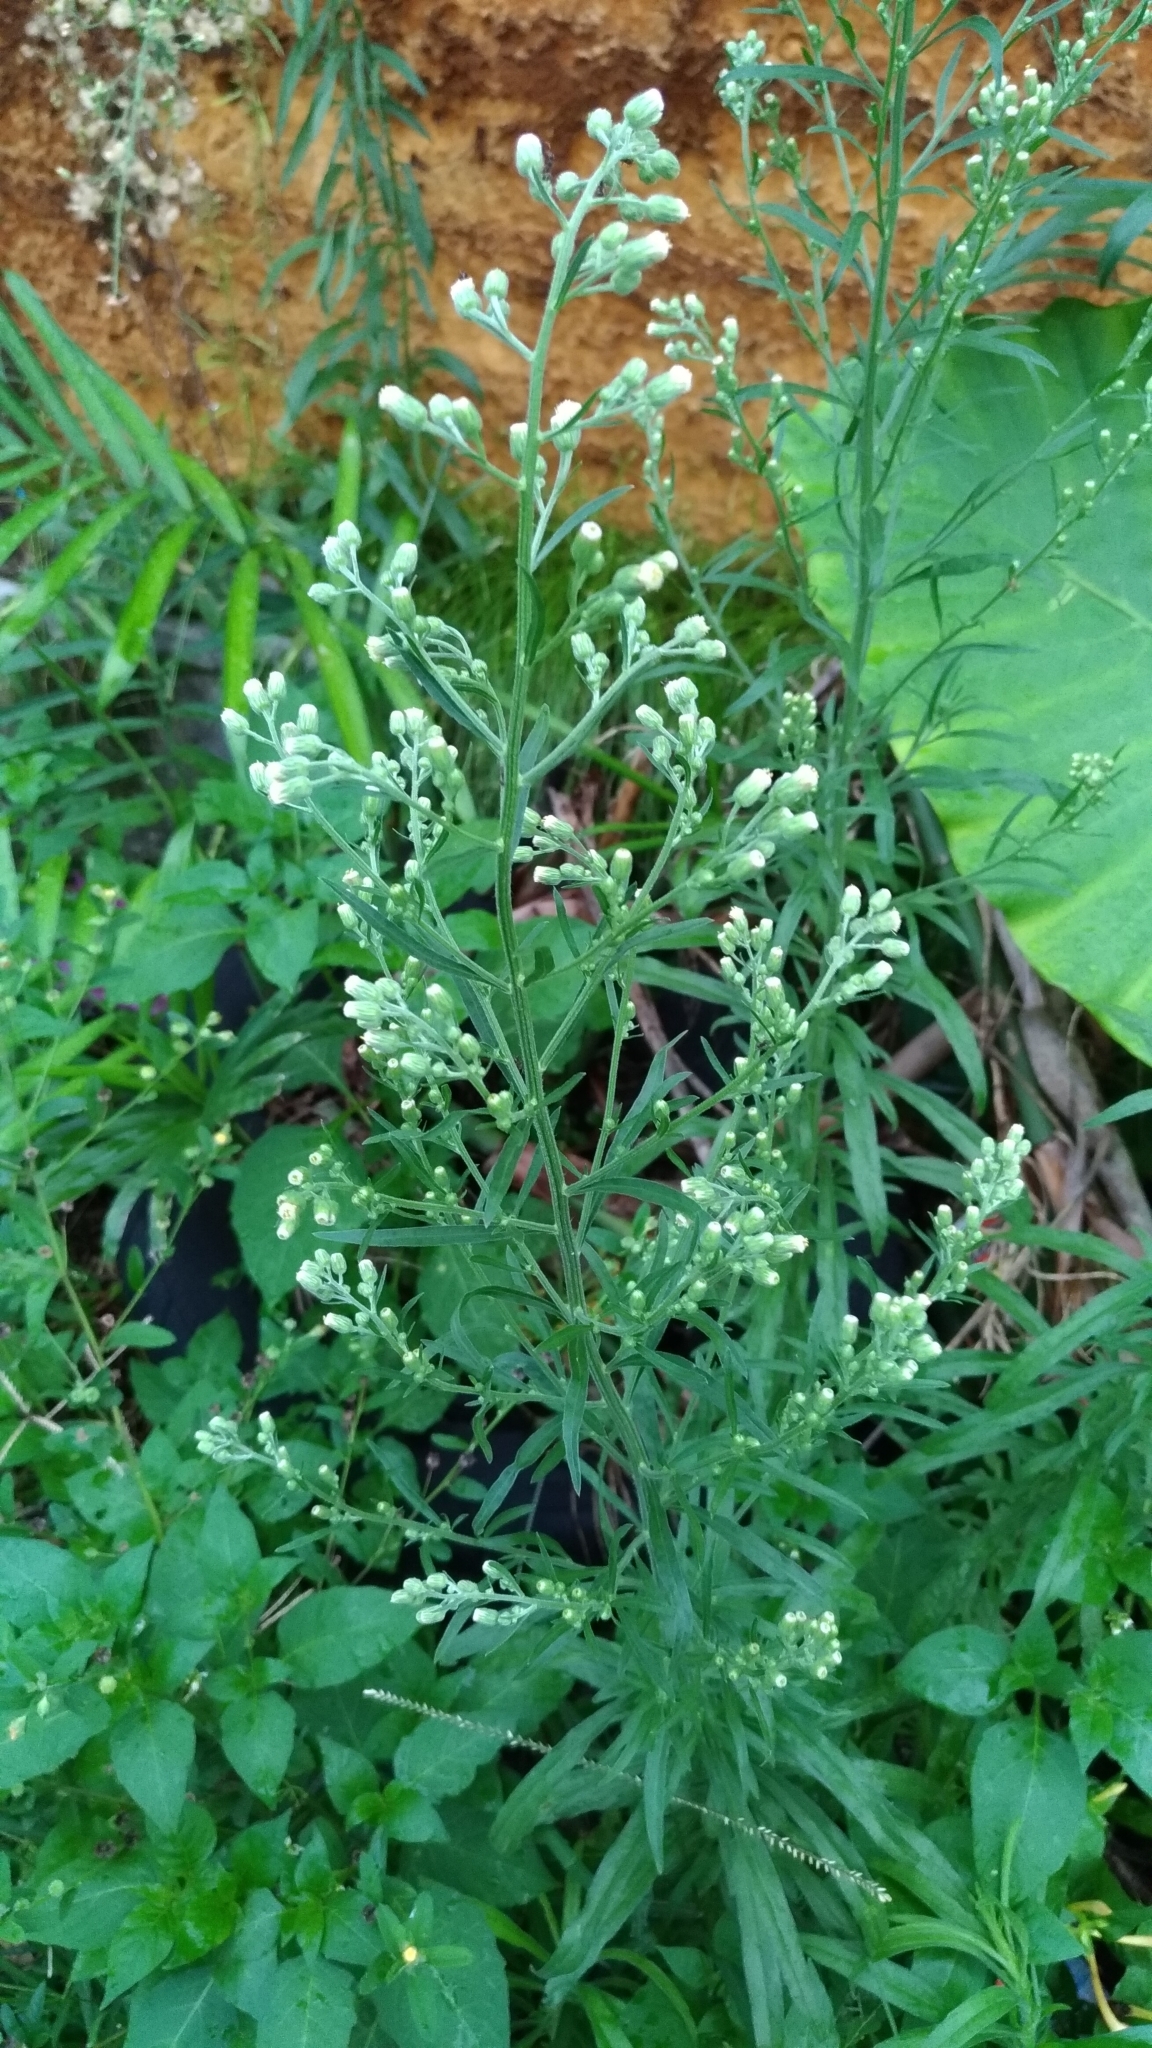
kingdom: Plantae
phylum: Tracheophyta
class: Magnoliopsida
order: Asterales
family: Asteraceae
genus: Erigeron
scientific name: Erigeron sumatrensis
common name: Daisy
